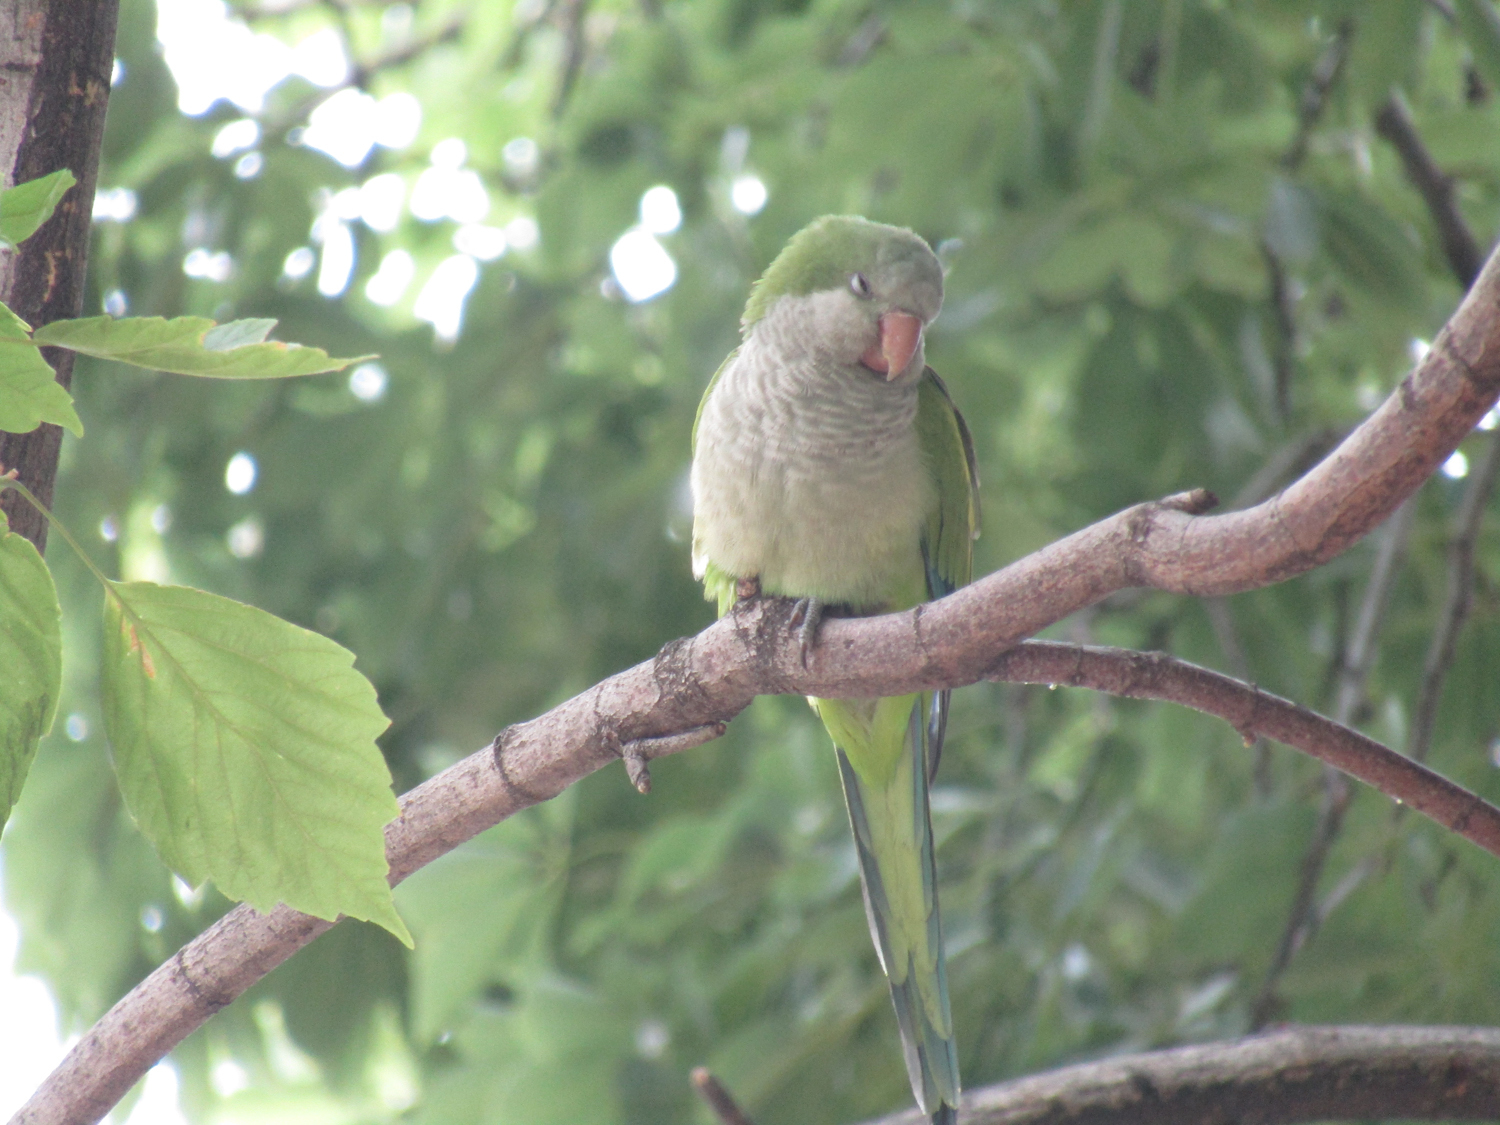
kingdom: Animalia
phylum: Chordata
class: Aves
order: Psittaciformes
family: Psittacidae
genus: Myiopsitta
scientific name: Myiopsitta monachus
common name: Monk parakeet
